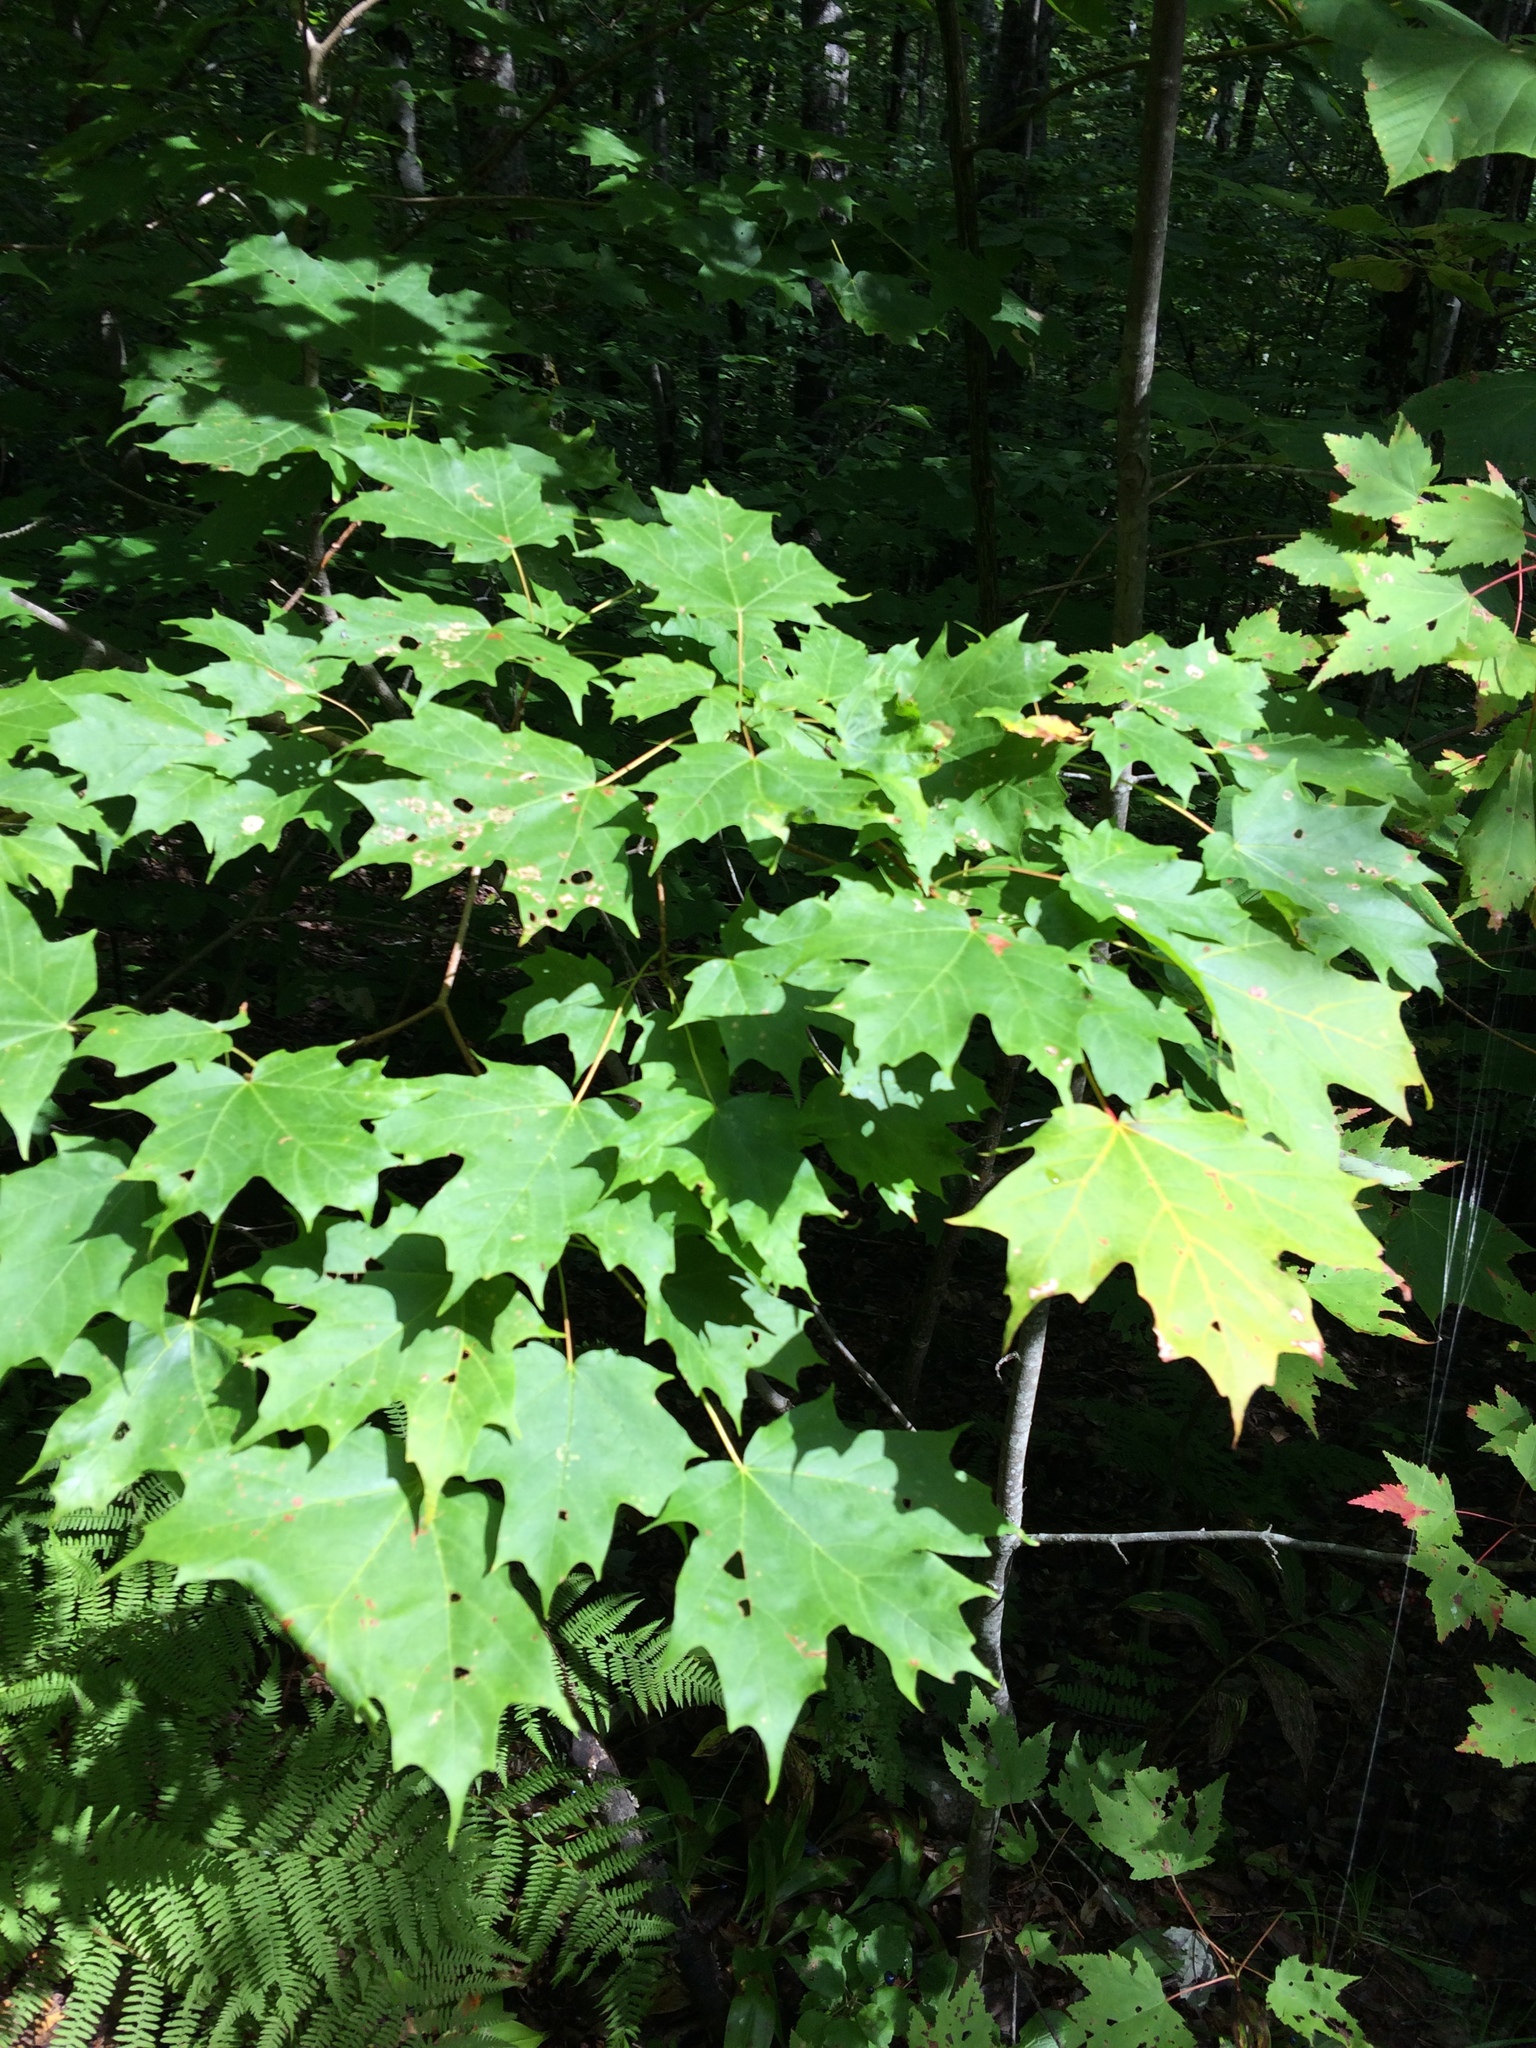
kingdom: Plantae
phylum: Tracheophyta
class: Magnoliopsida
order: Sapindales
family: Sapindaceae
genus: Acer
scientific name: Acer saccharum
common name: Sugar maple
